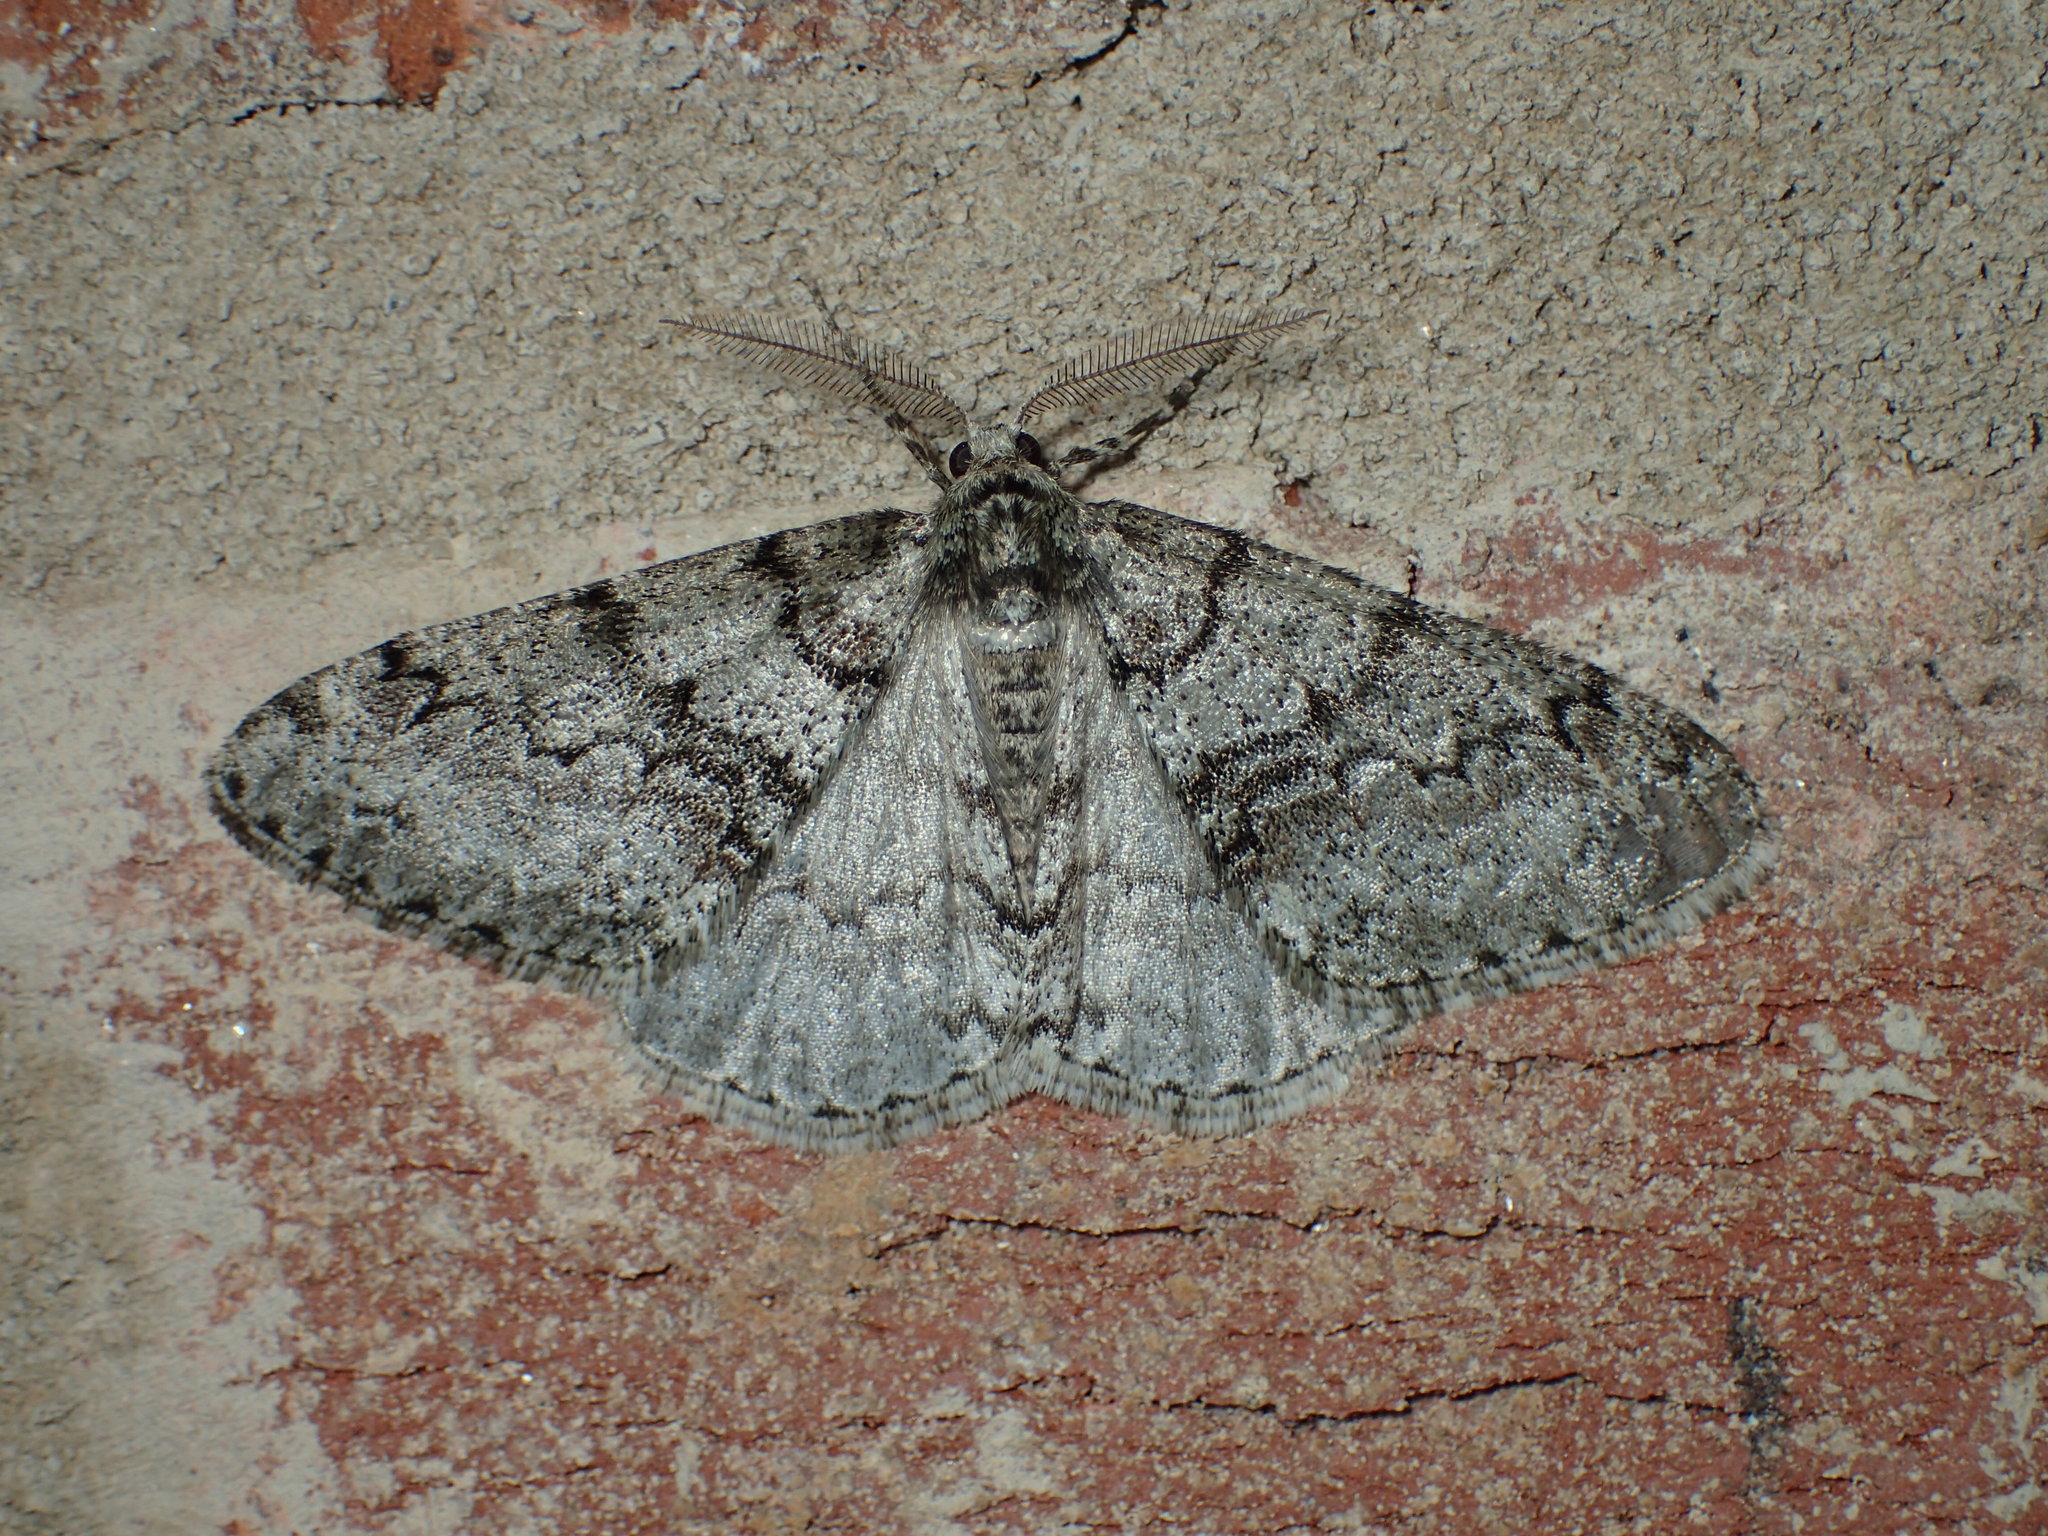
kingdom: Animalia
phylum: Arthropoda
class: Insecta
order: Lepidoptera
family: Geometridae
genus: Phigalia
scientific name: Phigalia denticulata
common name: Toothed phigalia
